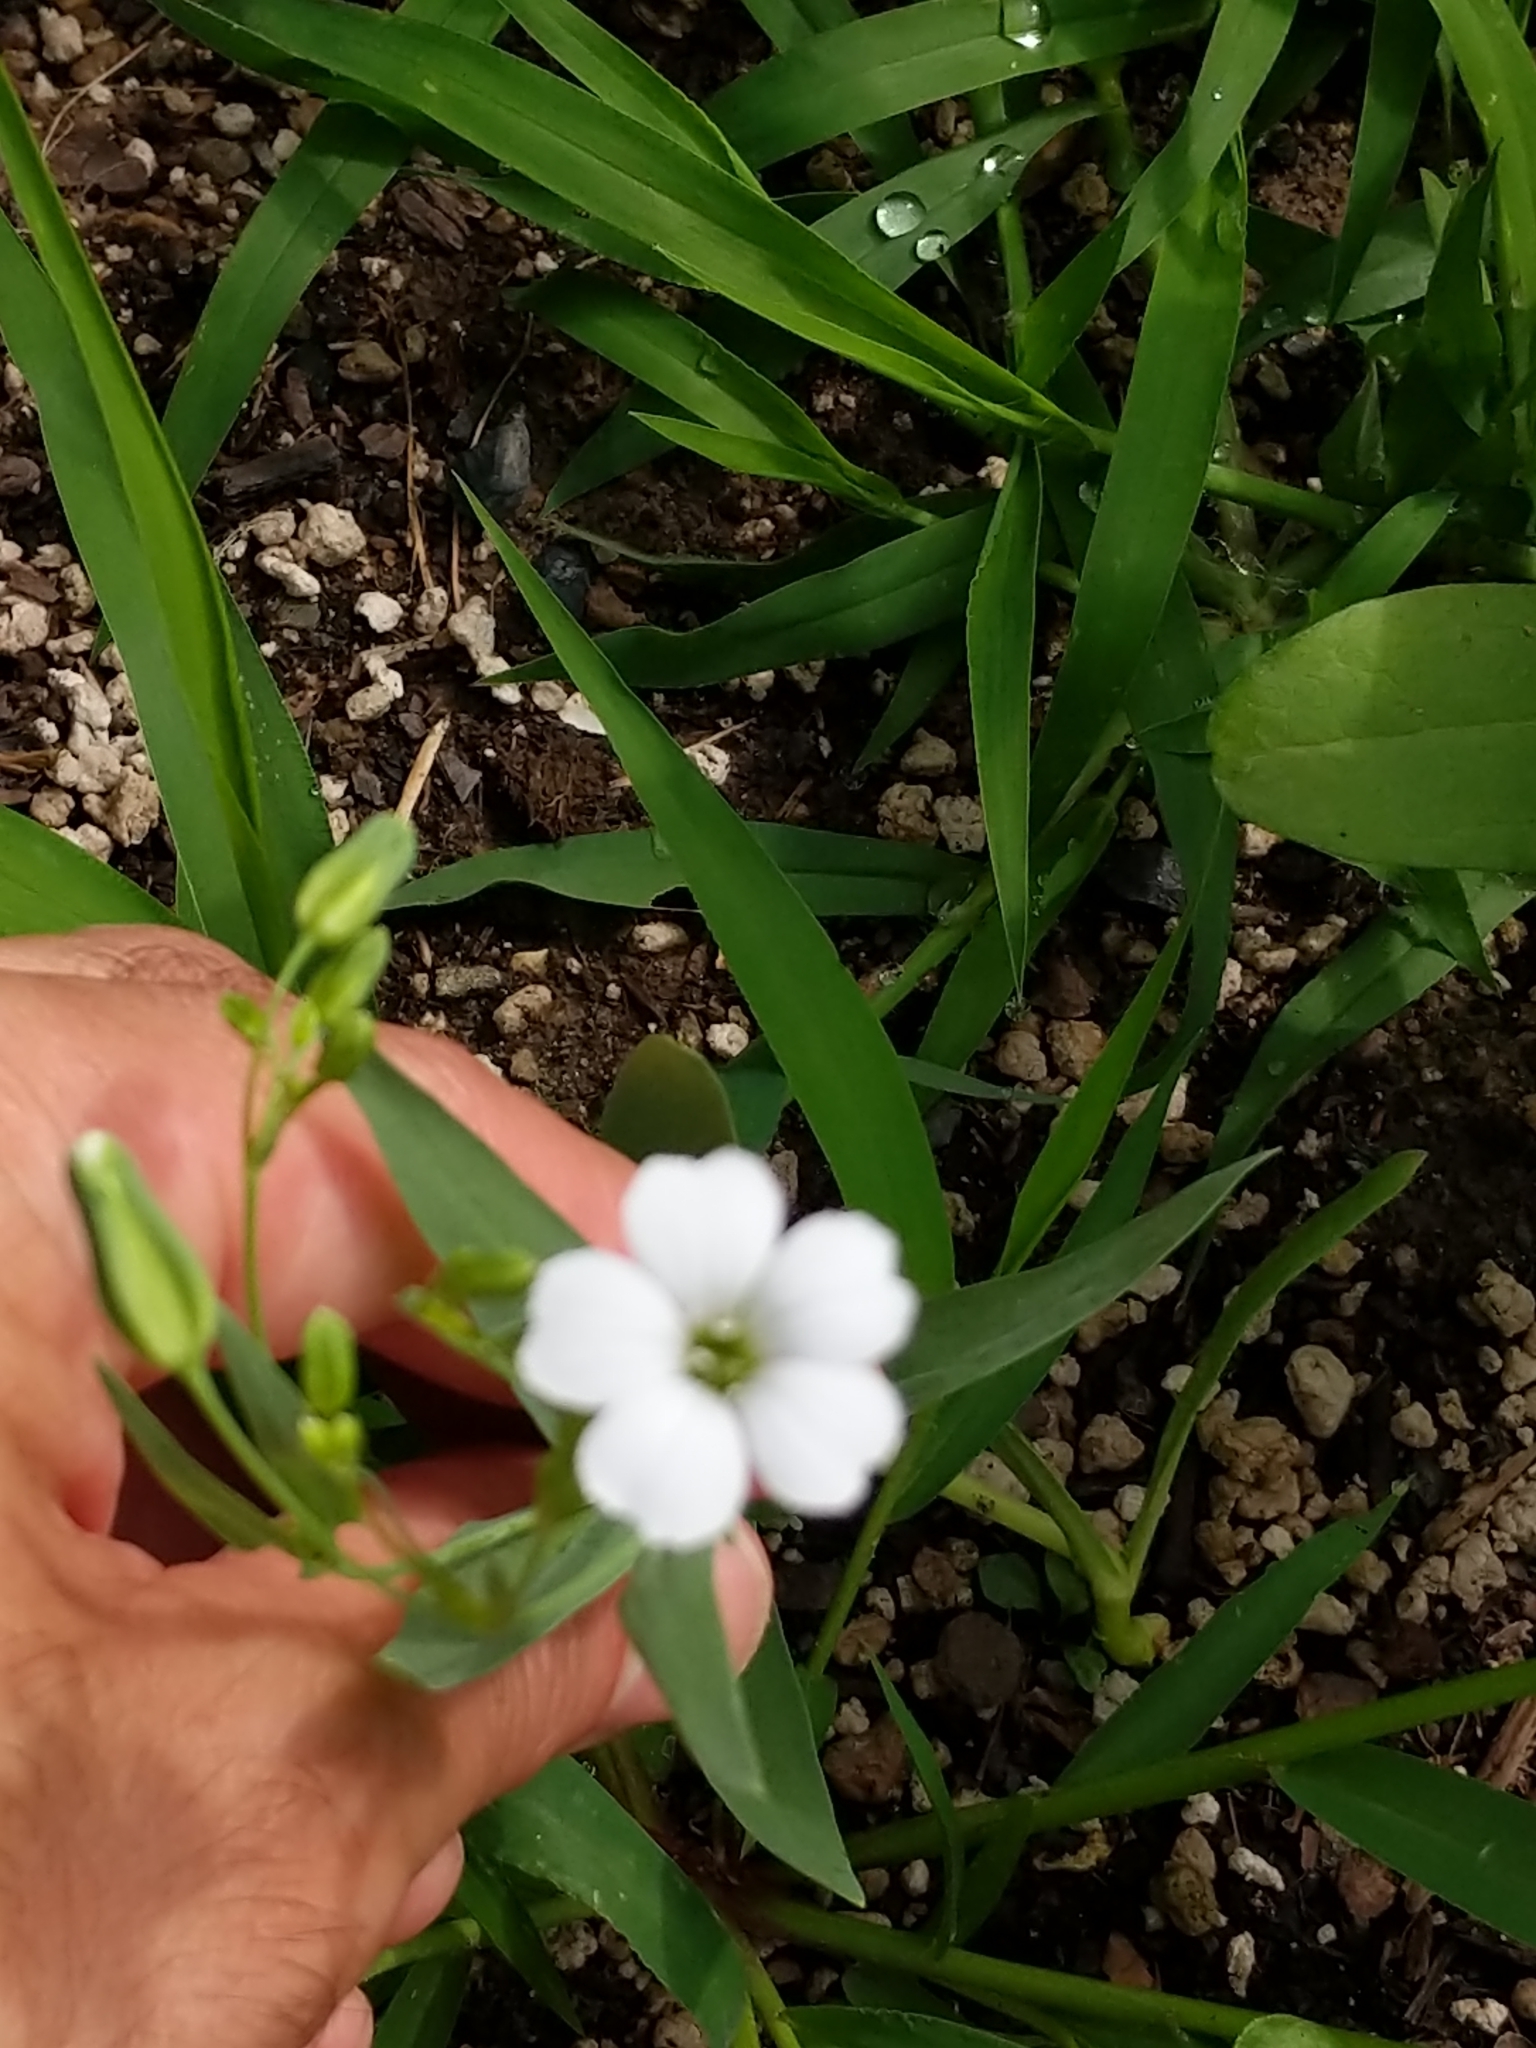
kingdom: Plantae
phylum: Tracheophyta
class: Magnoliopsida
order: Caryophyllales
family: Caryophyllaceae
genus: Gypsophila
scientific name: Gypsophila vaccaria
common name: Cow soapwort
